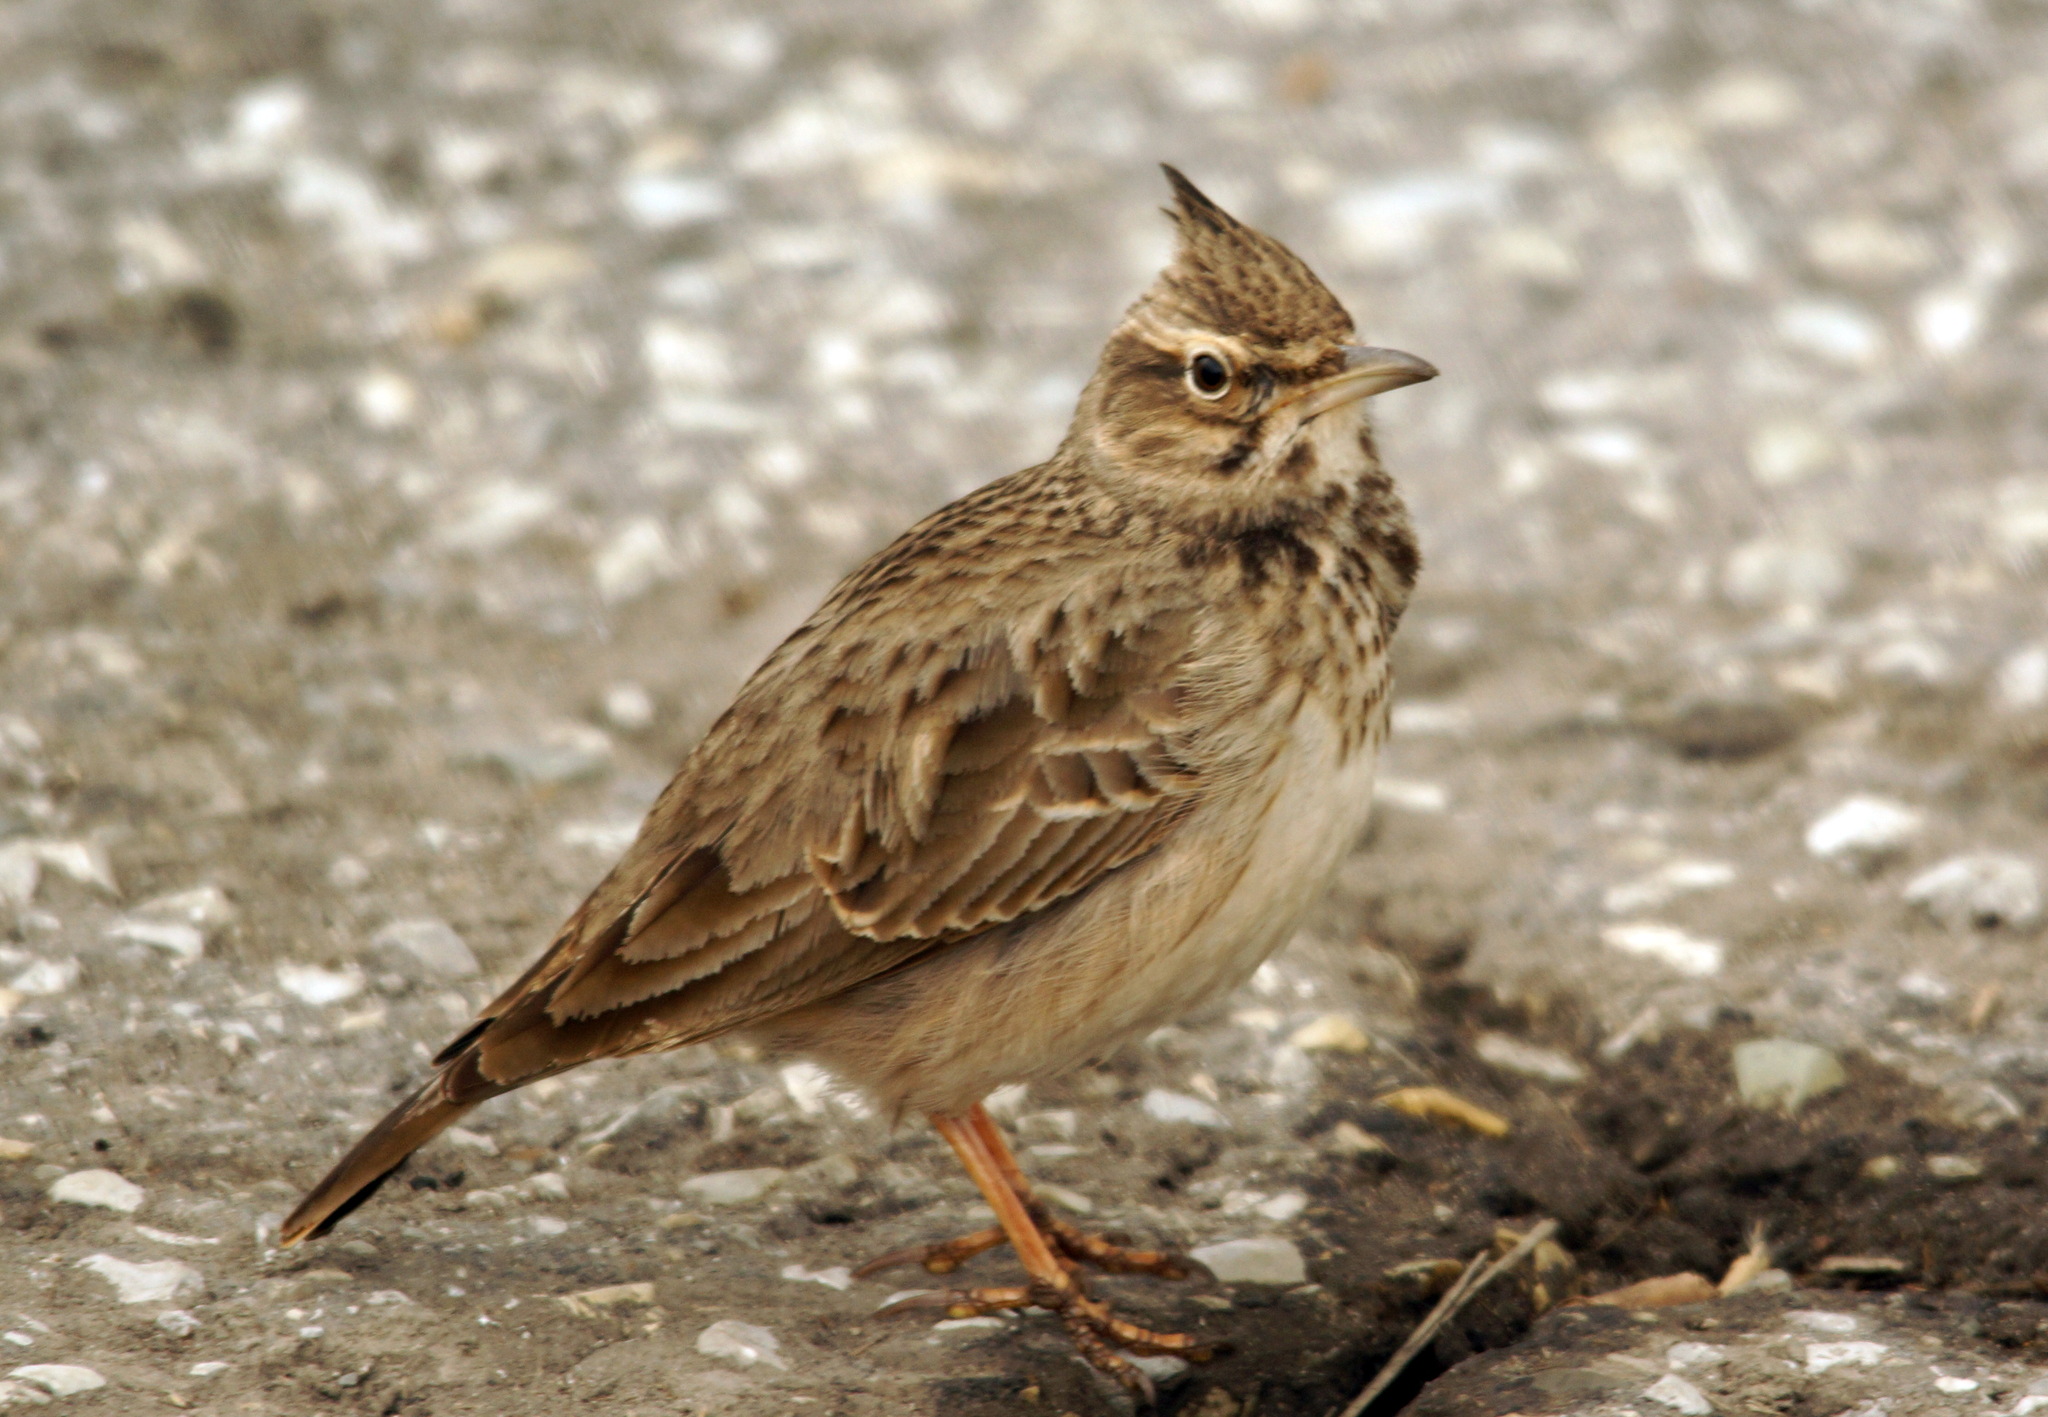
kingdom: Animalia
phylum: Chordata
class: Aves
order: Passeriformes
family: Alaudidae
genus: Galerida
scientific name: Galerida cristata
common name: Crested lark
